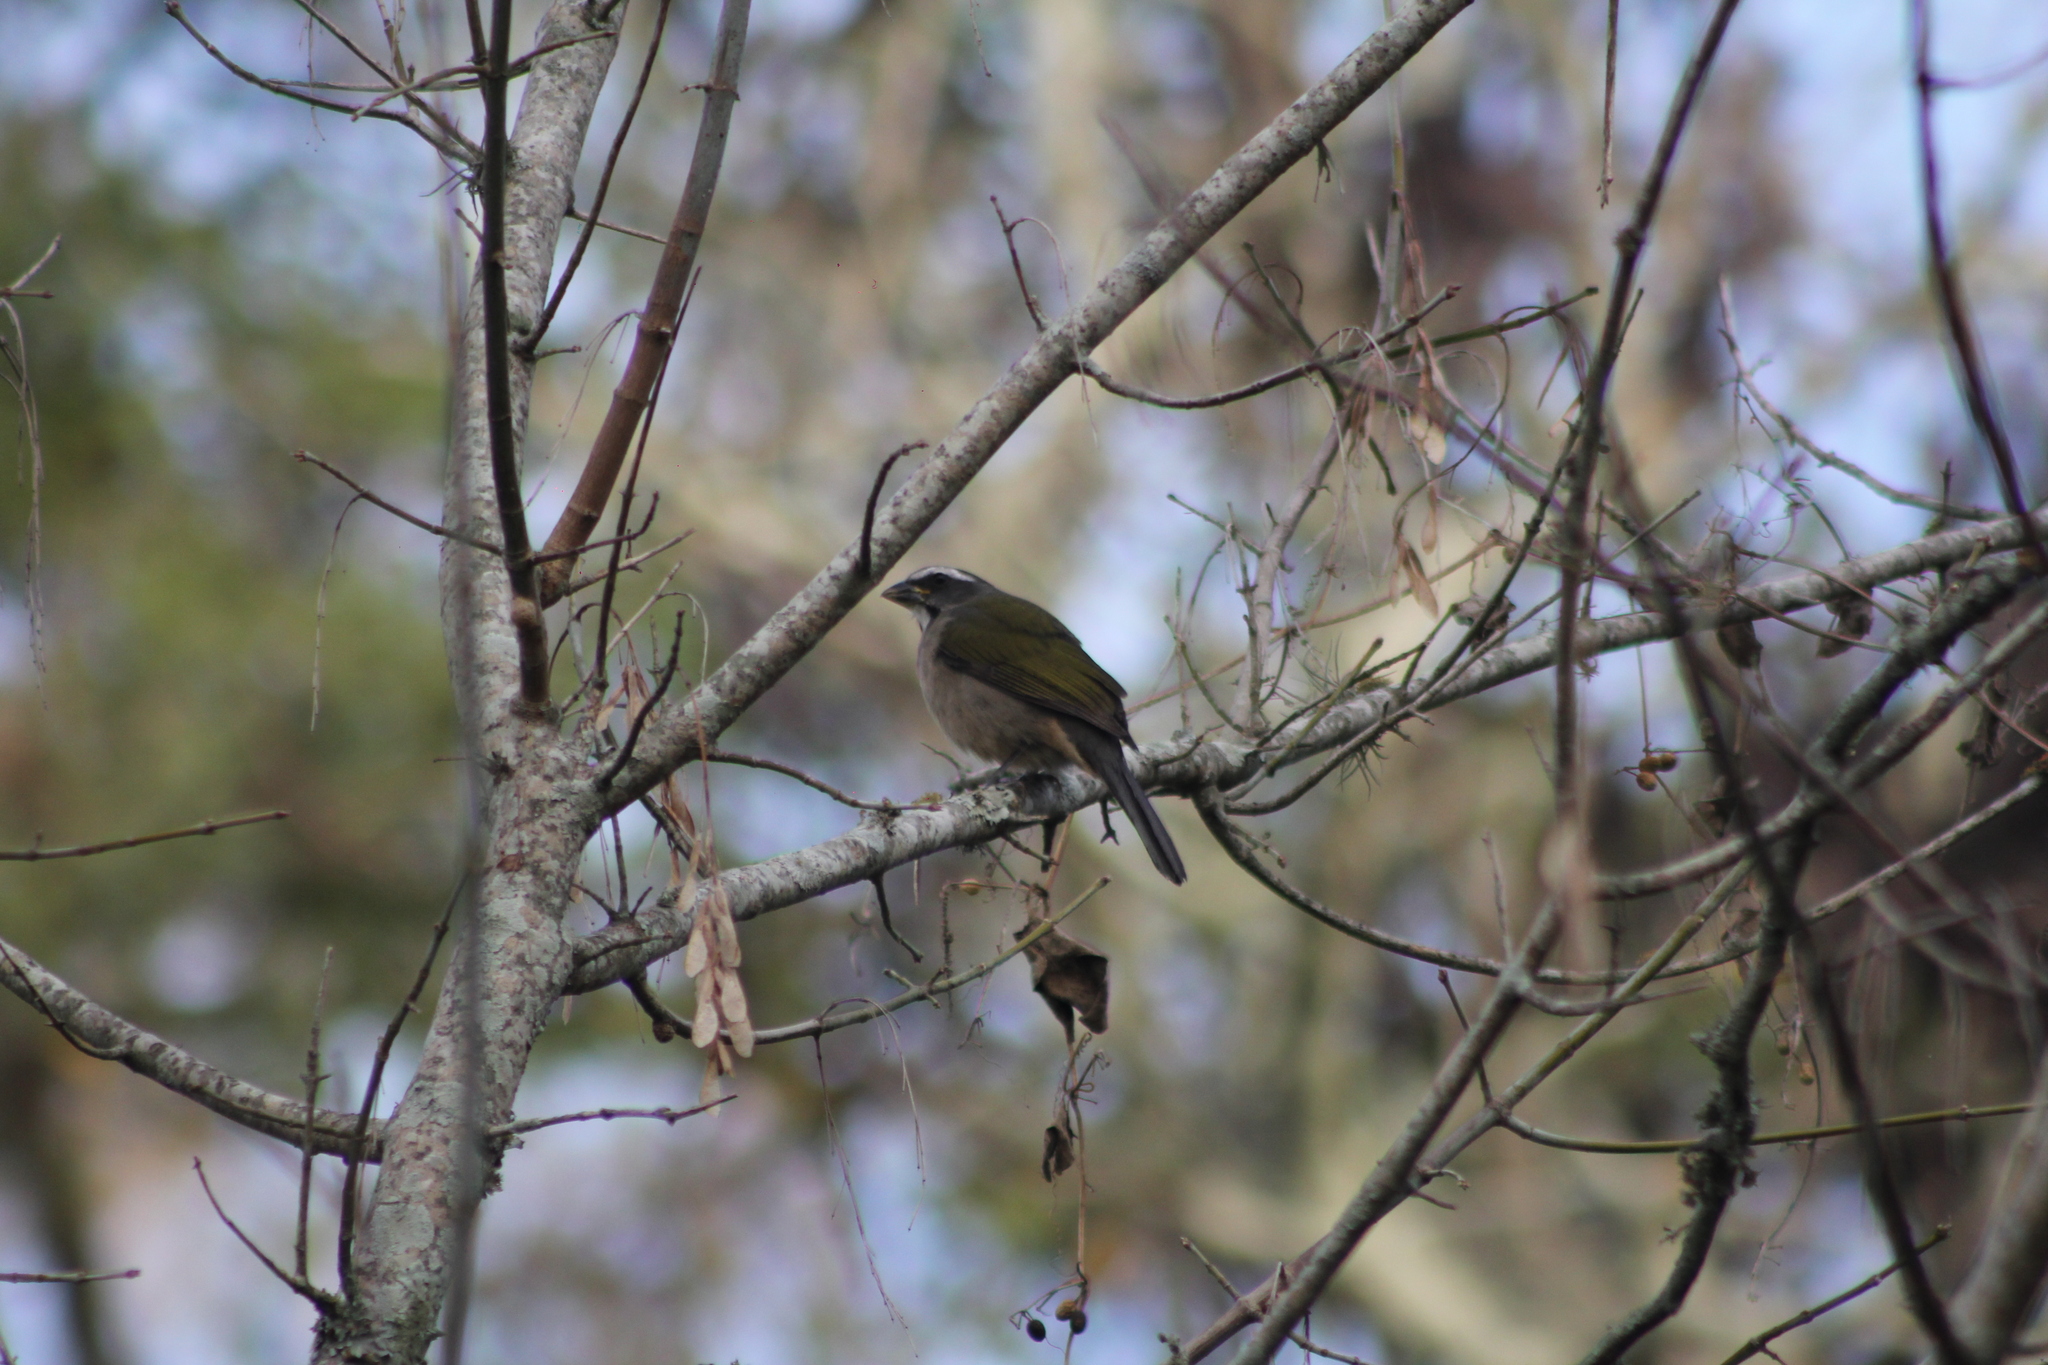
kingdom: Animalia
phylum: Chordata
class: Aves
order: Passeriformes
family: Thraupidae
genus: Saltator
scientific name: Saltator similis
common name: Green-winged saltator
